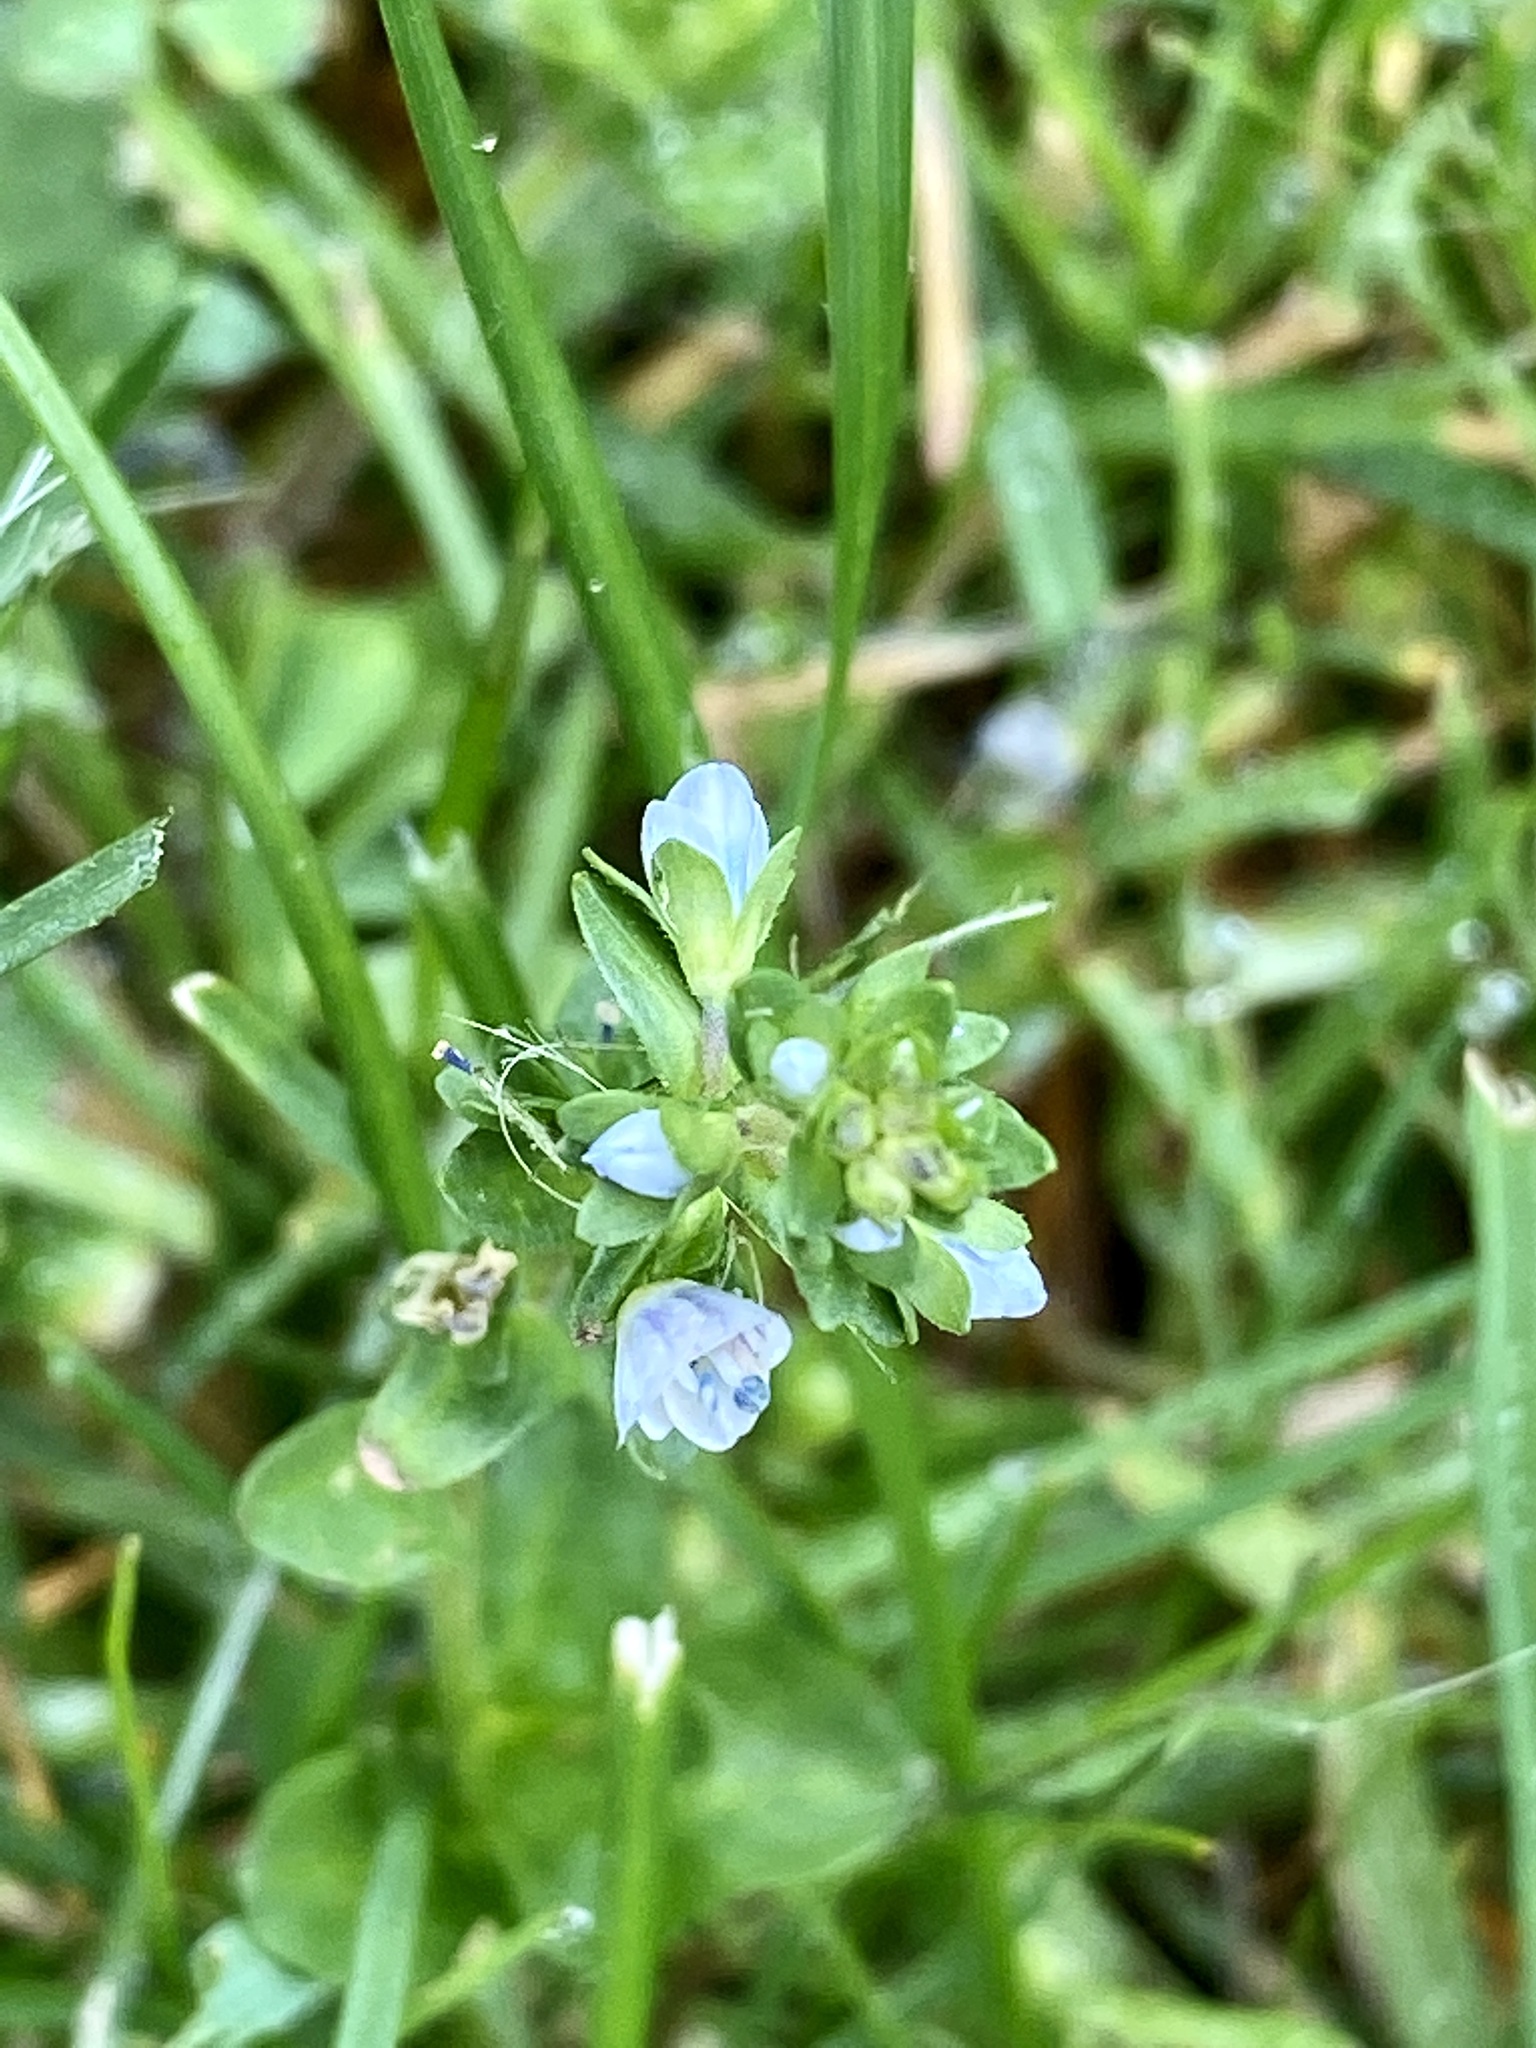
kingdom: Plantae
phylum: Tracheophyta
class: Magnoliopsida
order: Lamiales
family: Plantaginaceae
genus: Veronica
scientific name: Veronica serpyllifolia
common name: Thyme-leaved speedwell
